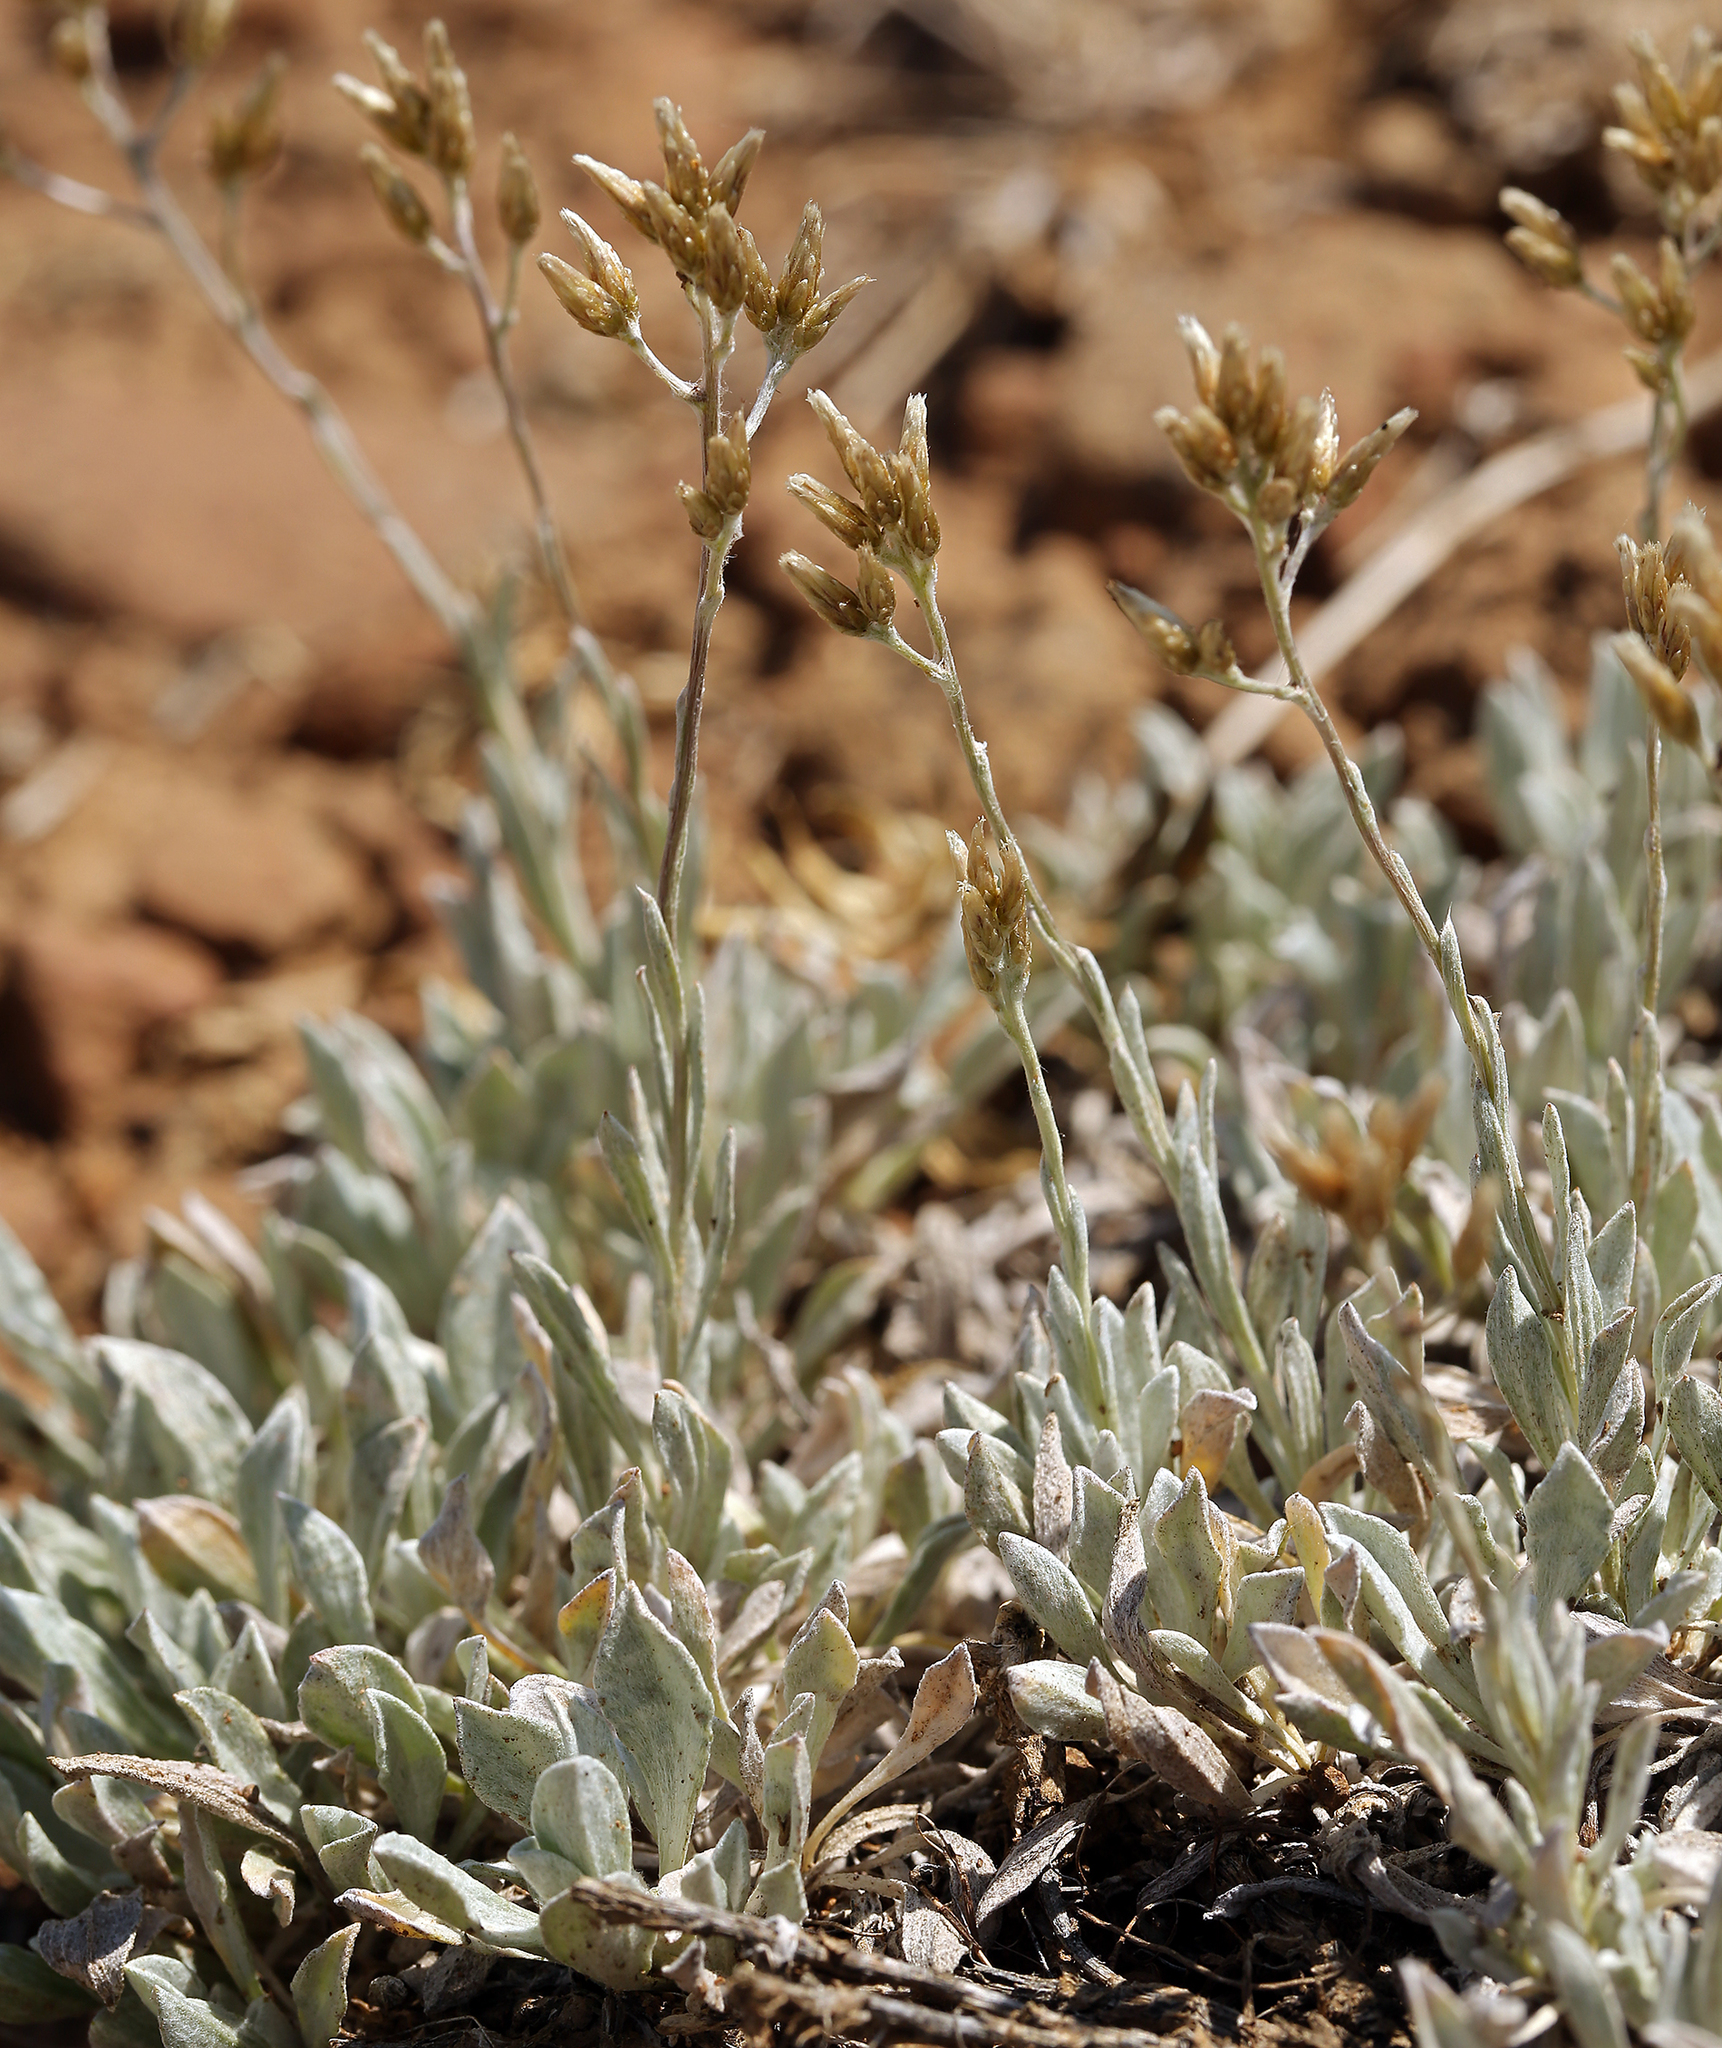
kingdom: Plantae
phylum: Tracheophyta
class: Magnoliopsida
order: Asterales
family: Asteraceae
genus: Antennaria
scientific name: Antennaria umbrinella
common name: Brown pussytoes
